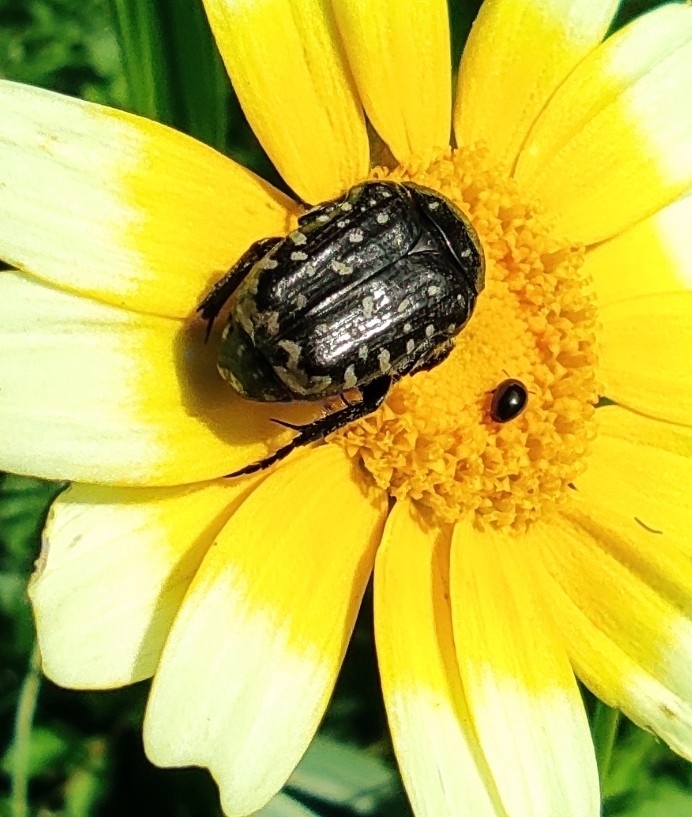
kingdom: Animalia
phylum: Arthropoda
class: Insecta
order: Coleoptera
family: Scarabaeidae
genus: Oxythyrea
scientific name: Oxythyrea funesta
